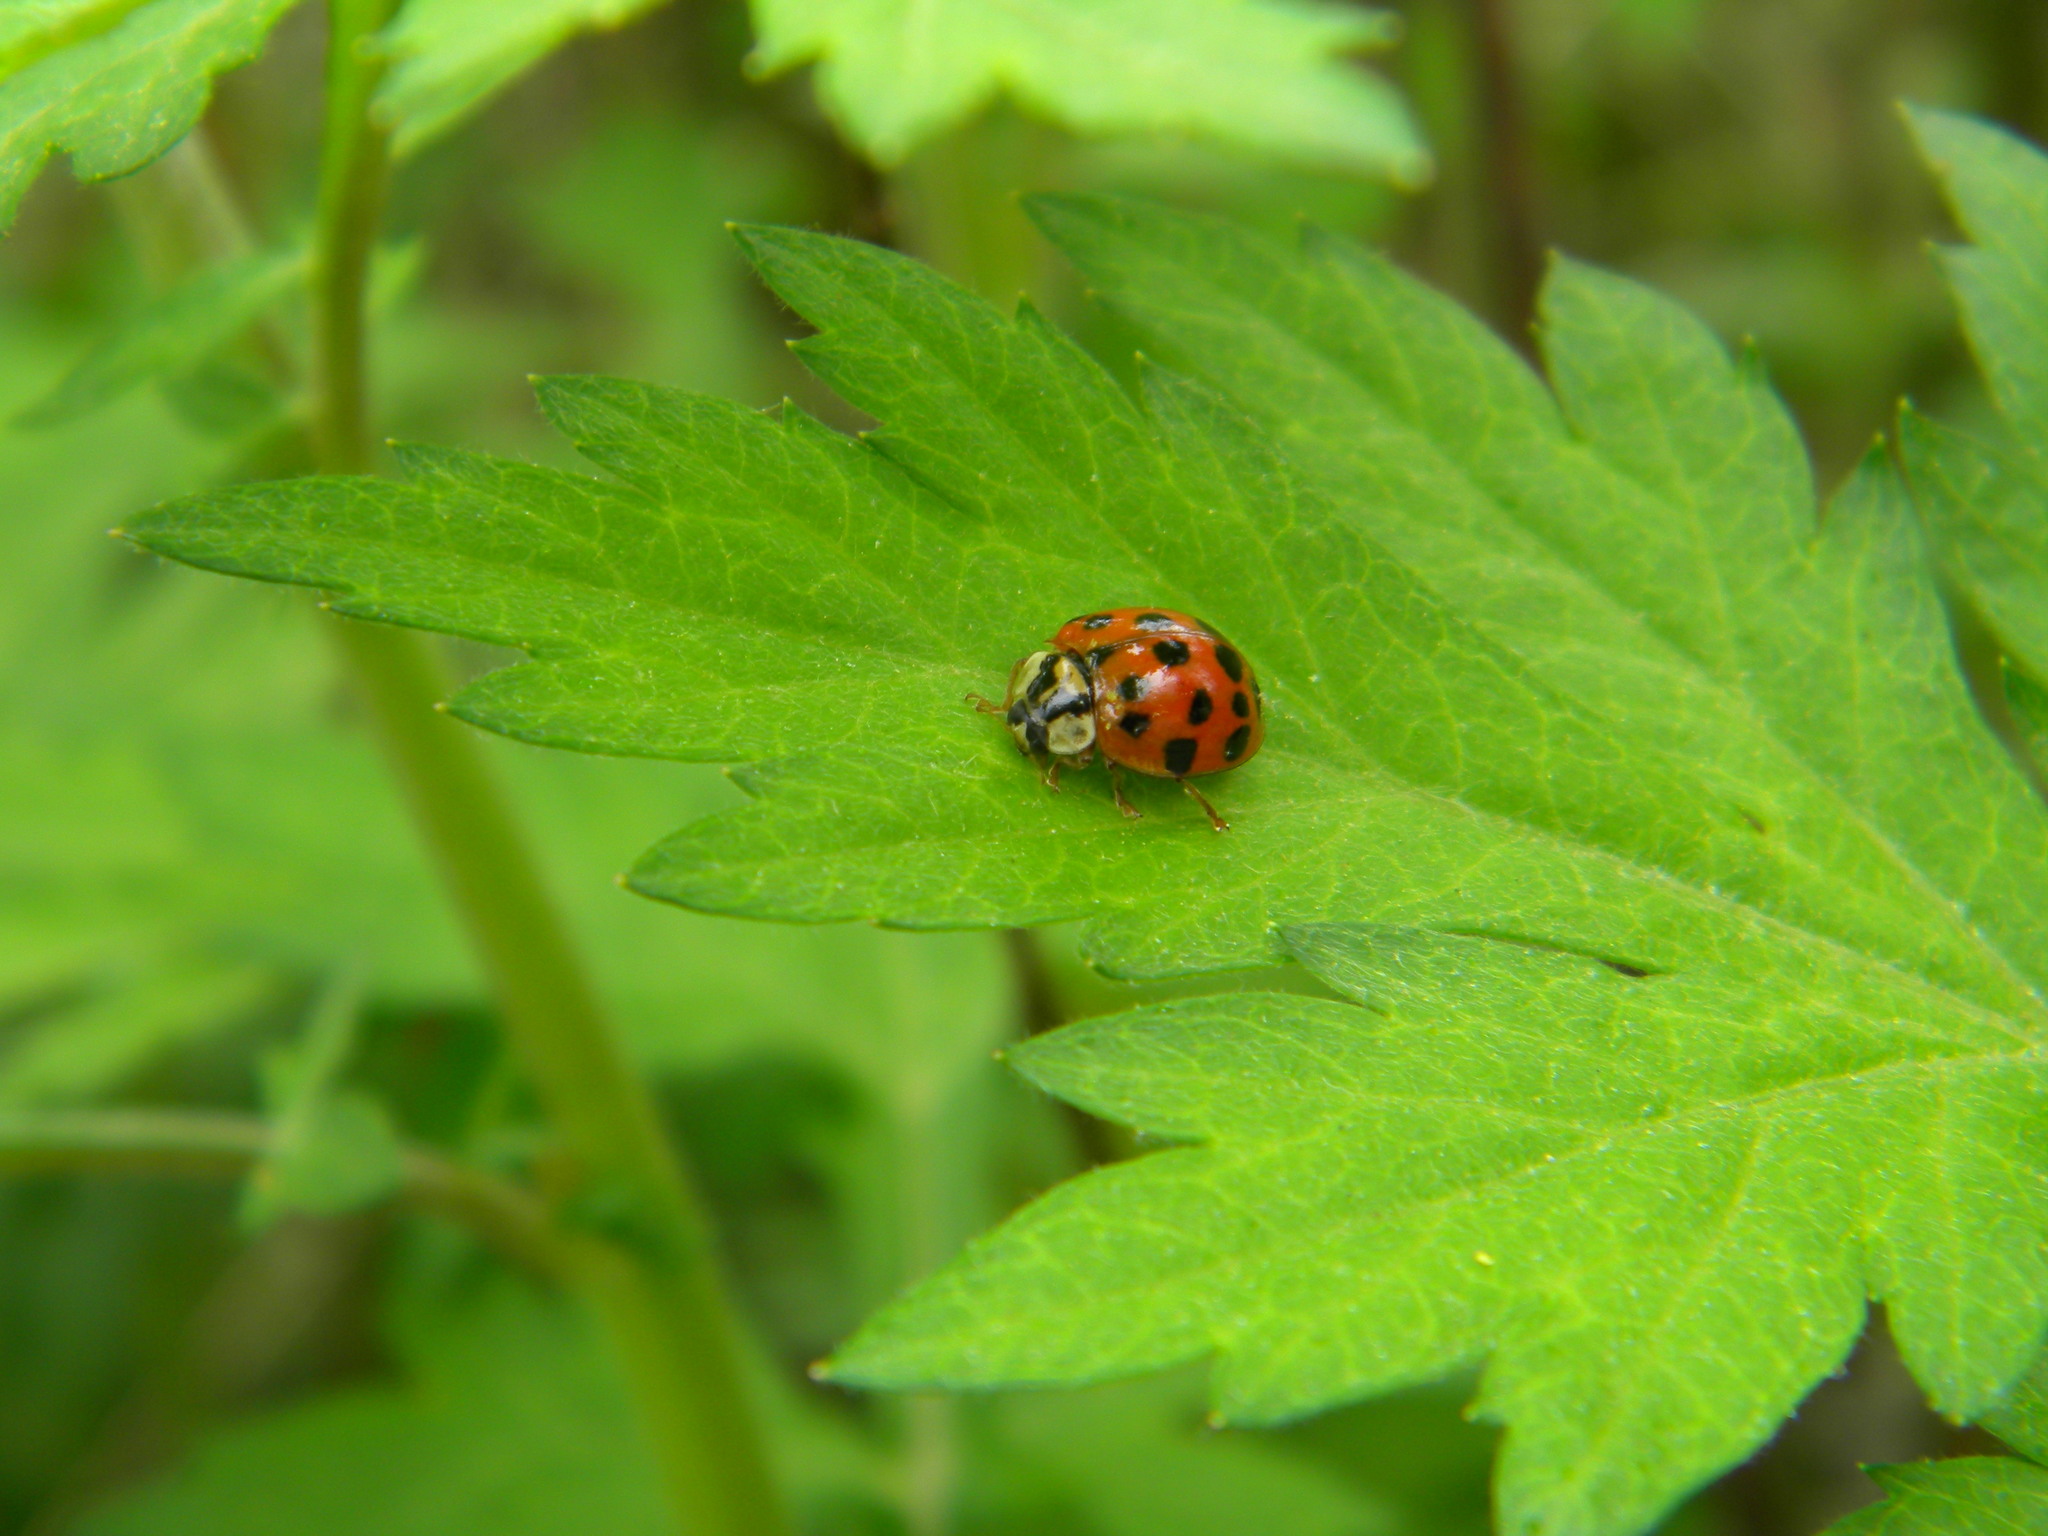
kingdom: Animalia
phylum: Arthropoda
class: Insecta
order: Coleoptera
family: Coccinellidae
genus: Harmonia
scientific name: Harmonia axyridis
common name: Harlequin ladybird
